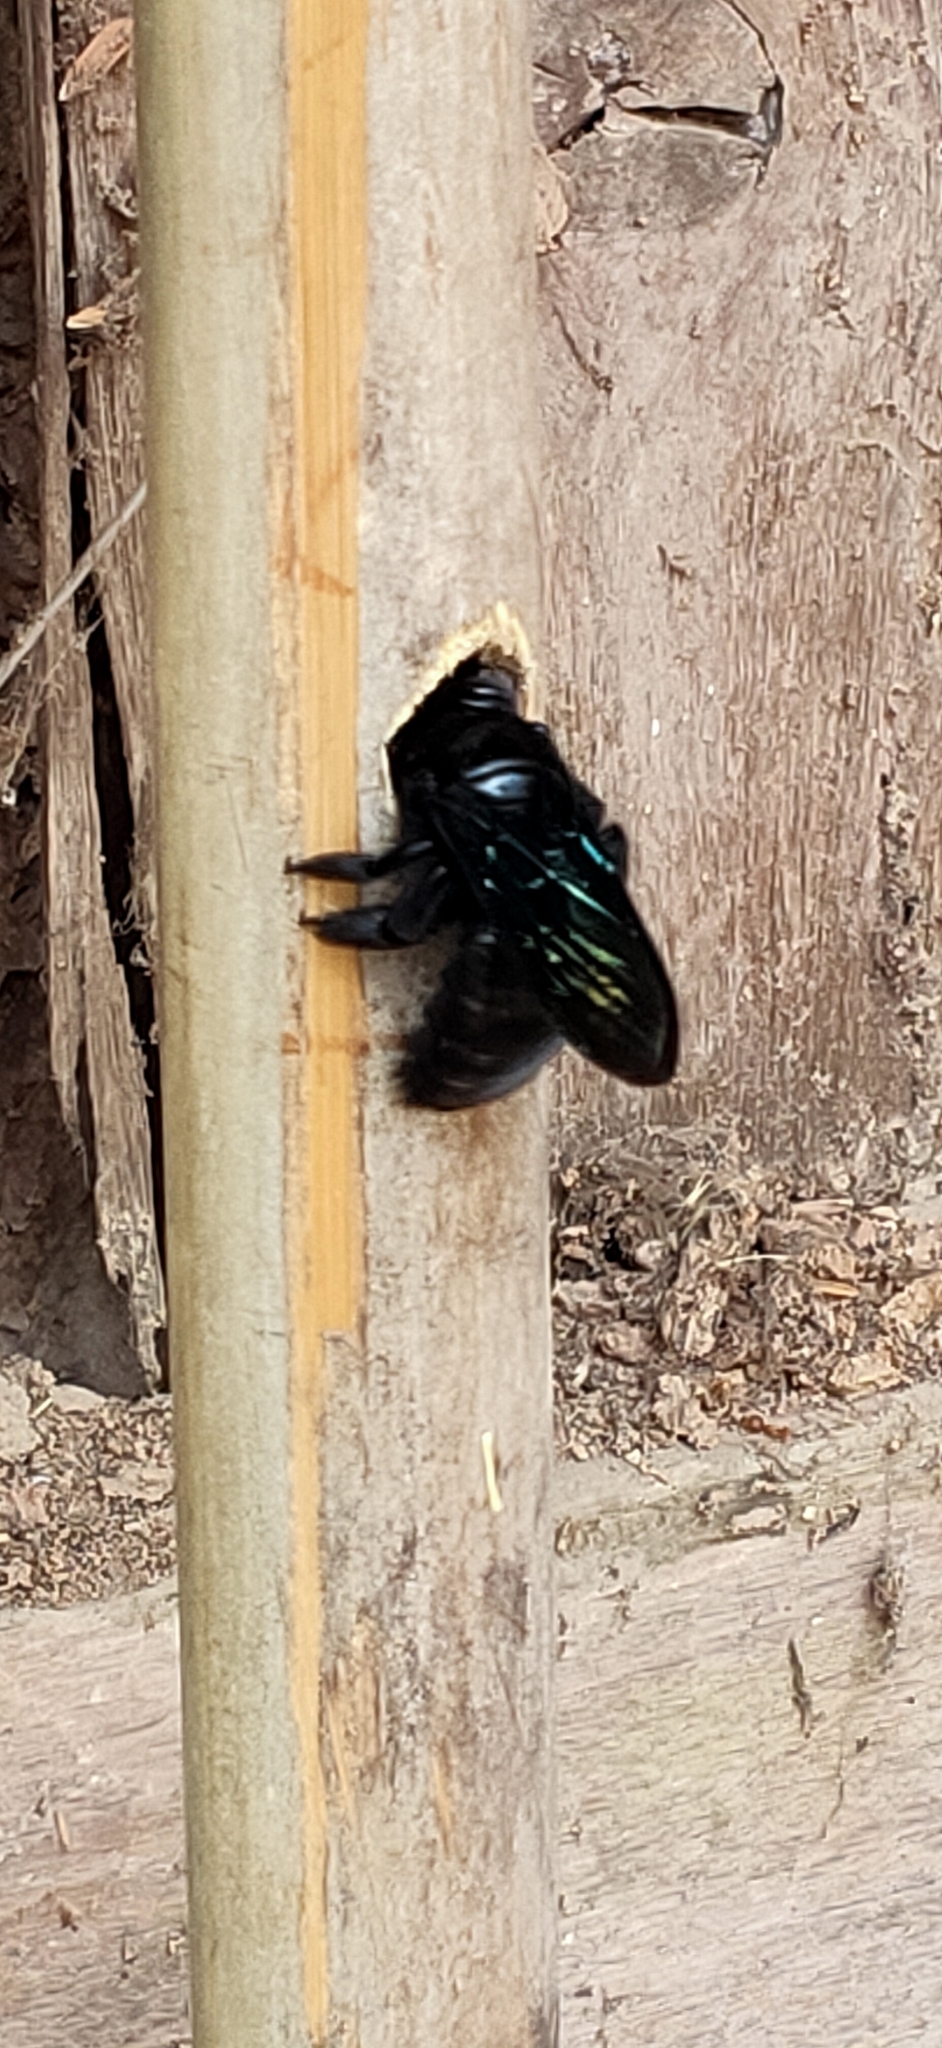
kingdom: Animalia
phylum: Arthropoda
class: Insecta
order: Hymenoptera
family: Apidae
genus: Xylocopa
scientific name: Xylocopa nasalis
